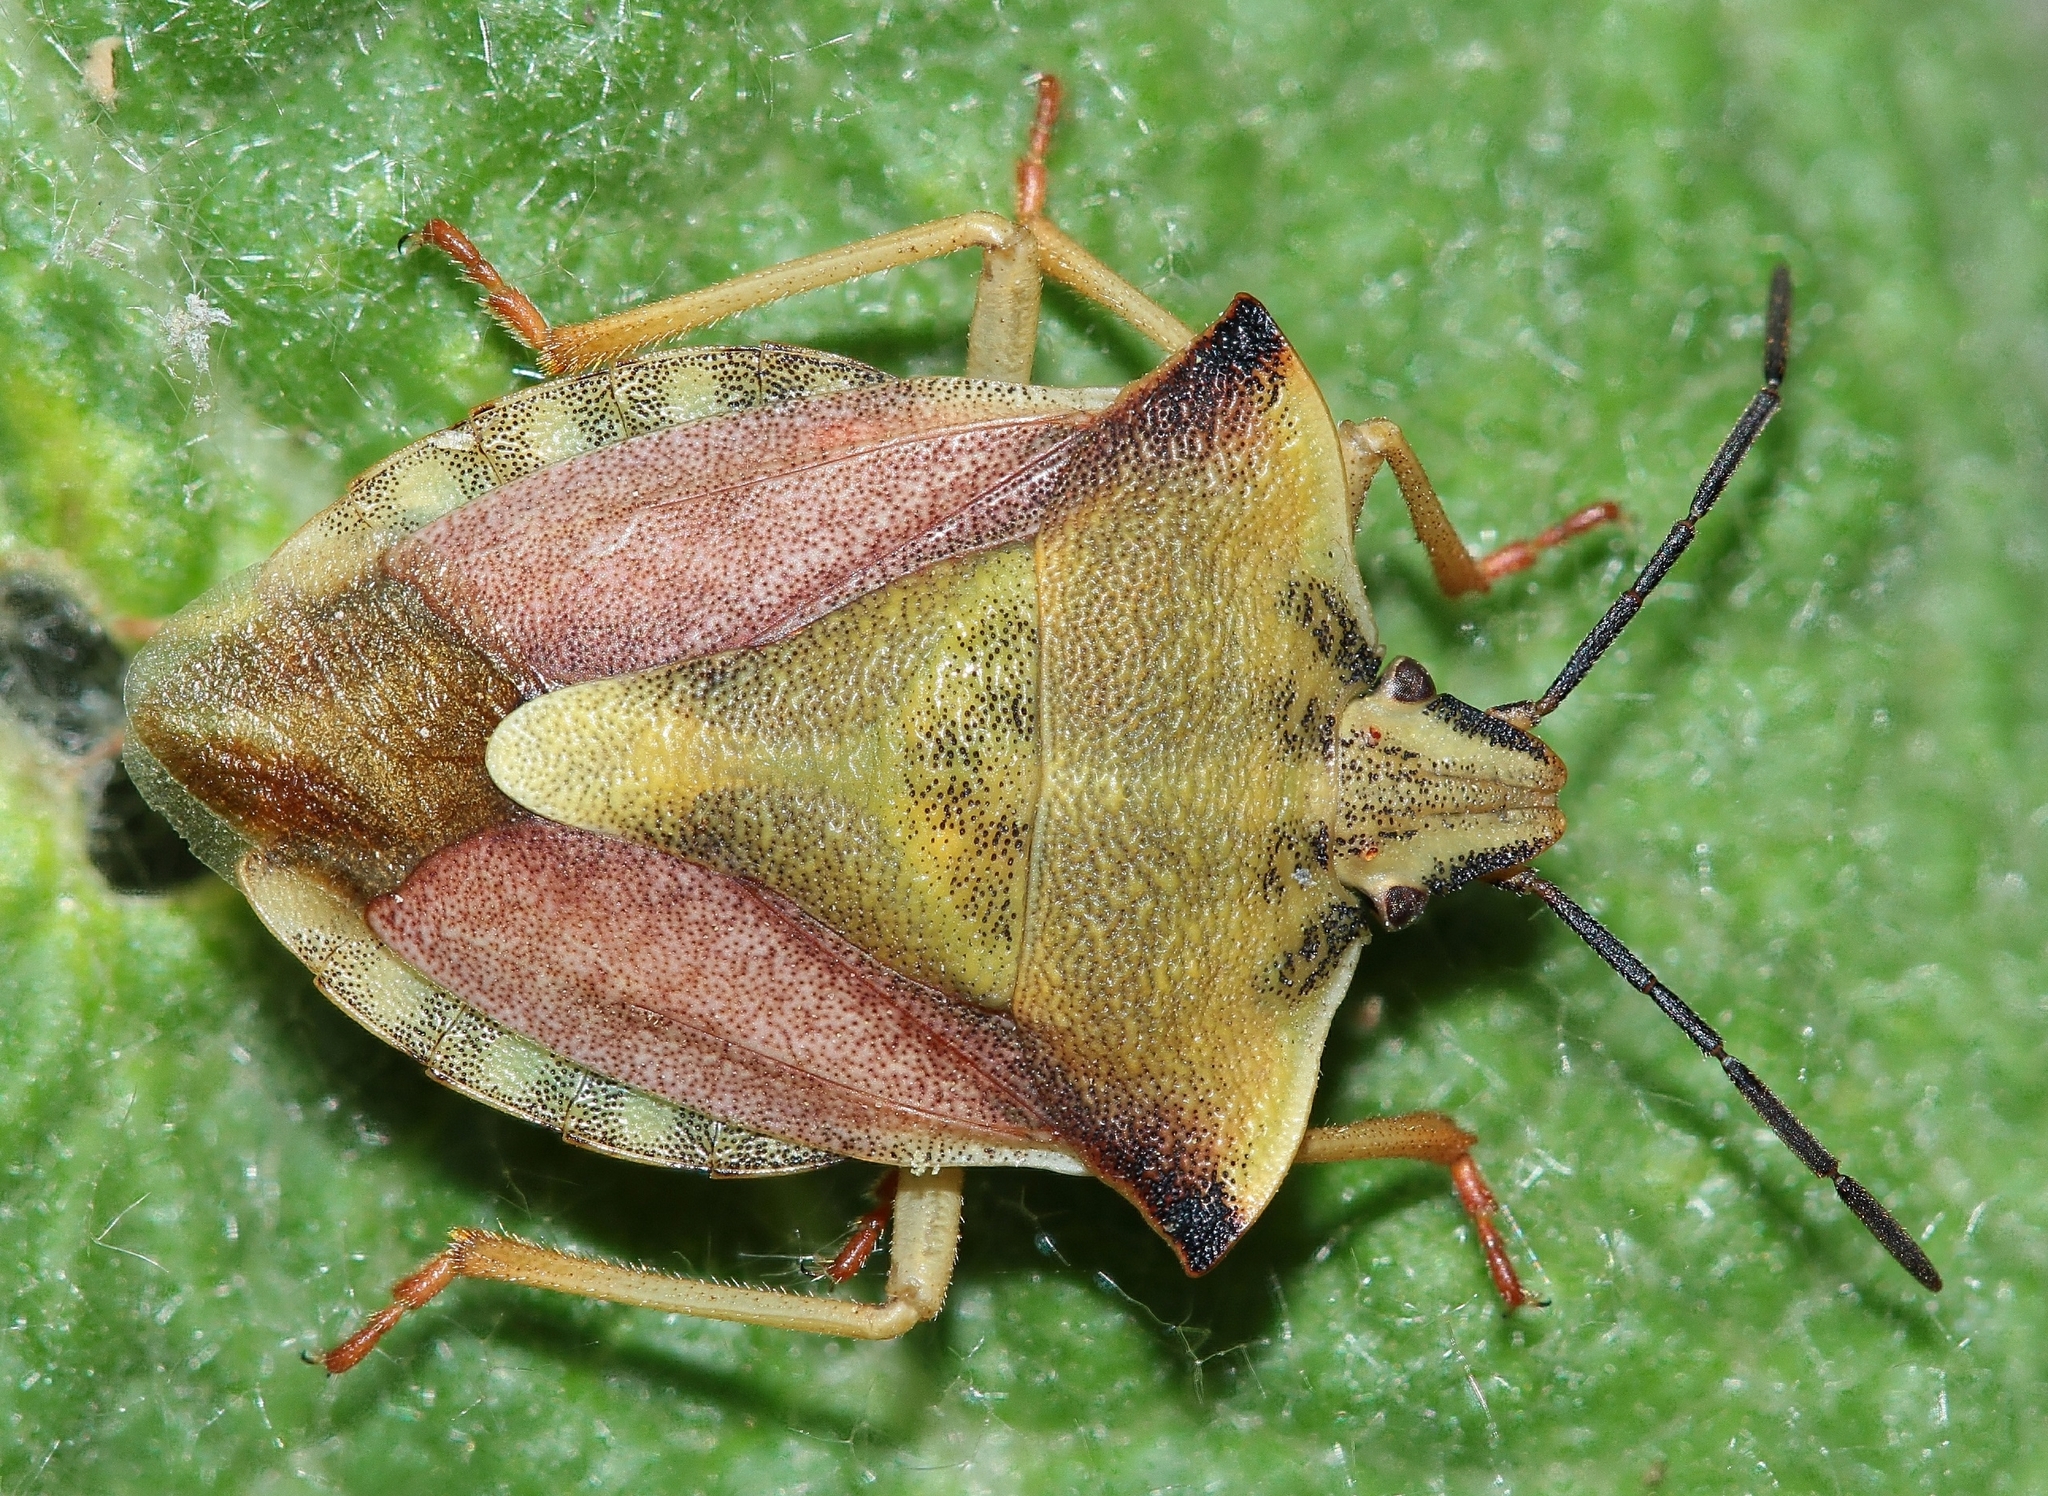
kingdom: Animalia
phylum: Arthropoda
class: Insecta
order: Hemiptera
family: Pentatomidae
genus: Carpocoris
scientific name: Carpocoris fuscispinus
